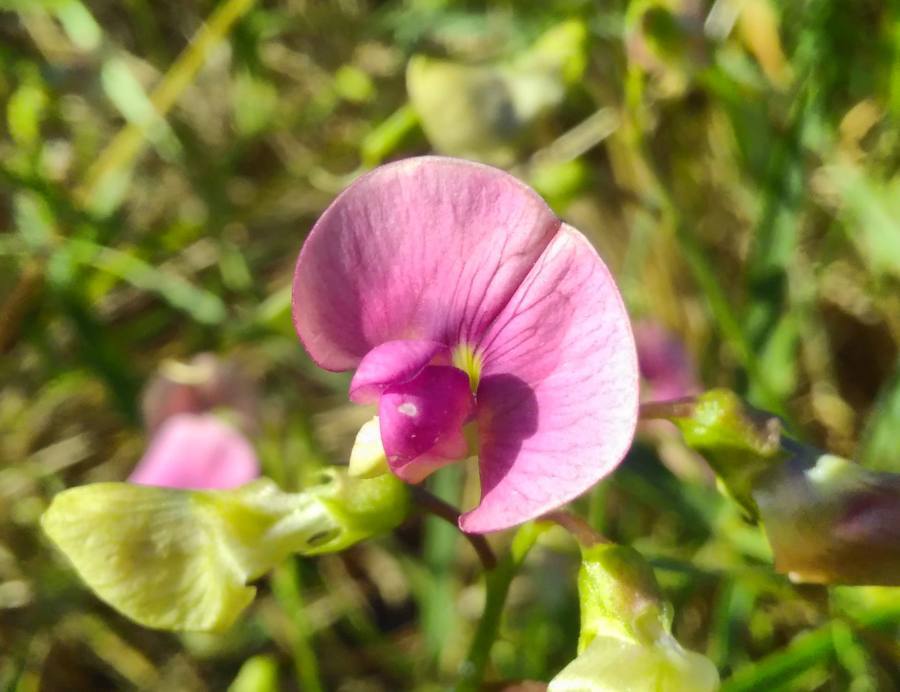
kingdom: Plantae
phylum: Tracheophyta
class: Magnoliopsida
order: Fabales
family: Fabaceae
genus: Lathyrus
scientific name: Lathyrus sylvestris
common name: Flat pea
